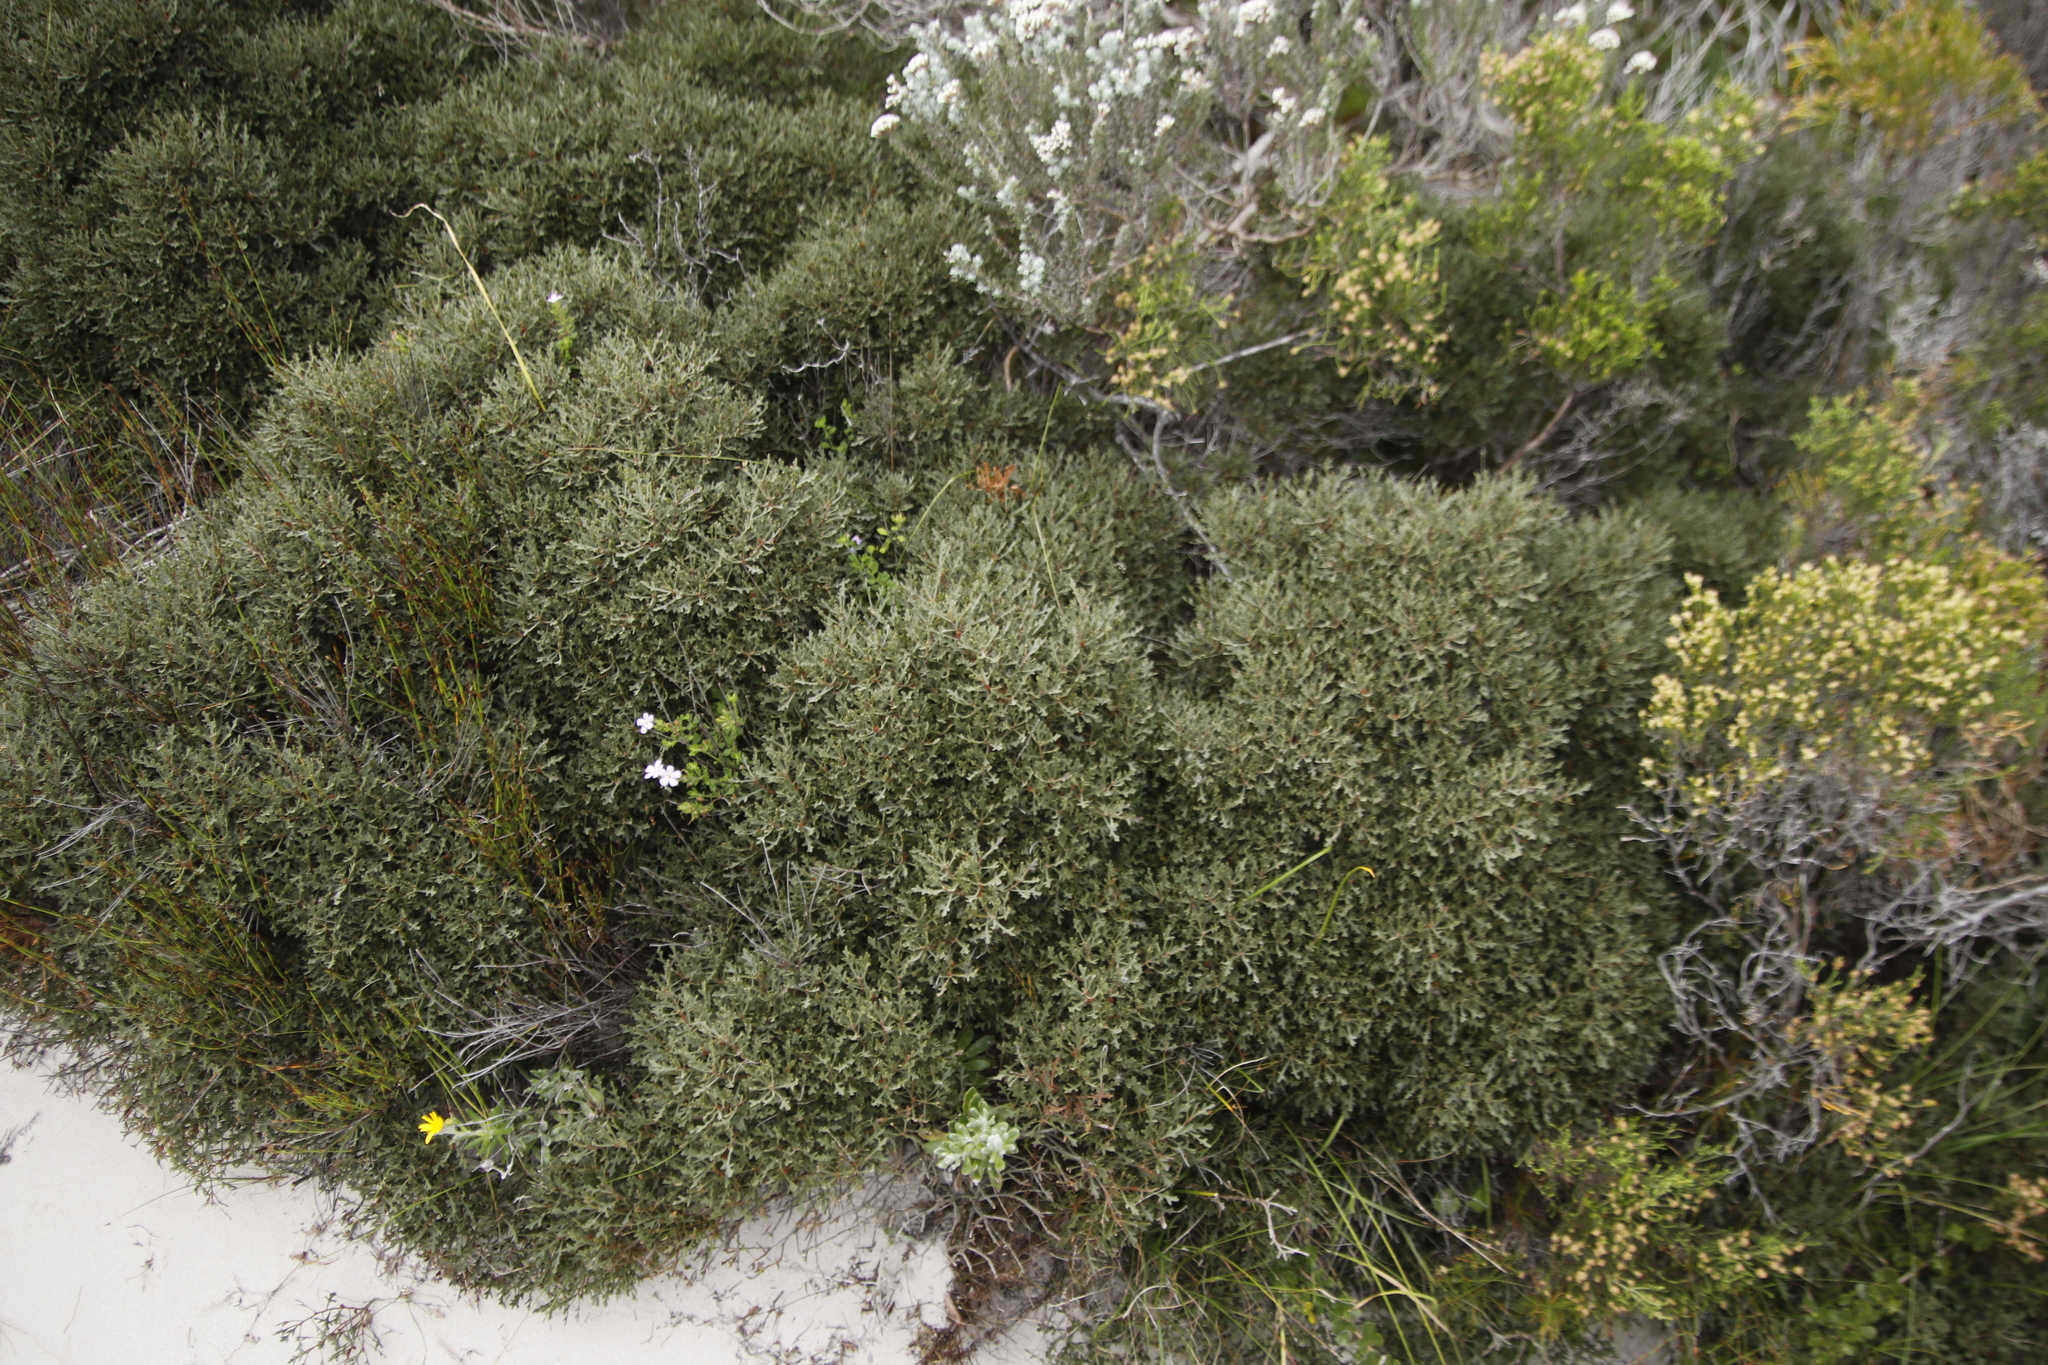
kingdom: Plantae
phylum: Tracheophyta
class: Magnoliopsida
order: Fagales
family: Myricaceae
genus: Morella
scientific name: Morella quercifolia
